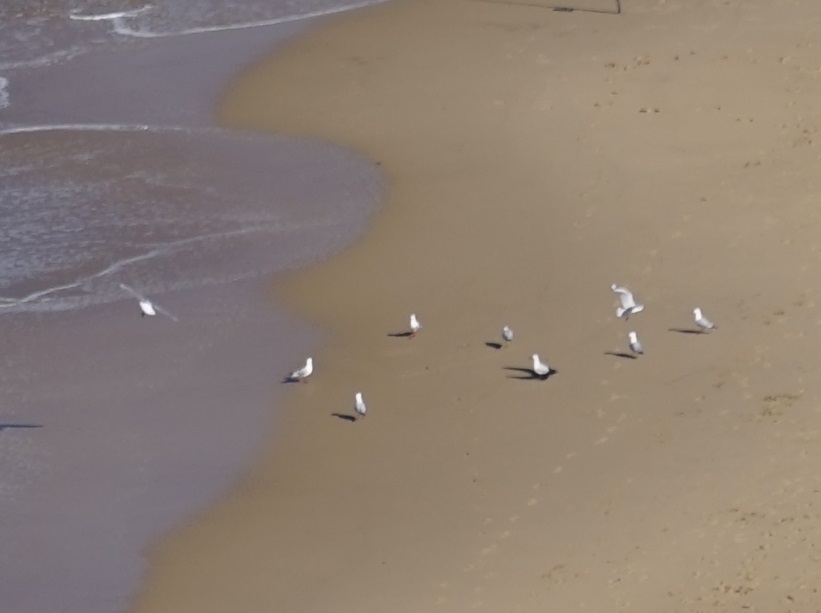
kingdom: Animalia
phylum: Chordata
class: Aves
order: Charadriiformes
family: Laridae
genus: Chroicocephalus
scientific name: Chroicocephalus novaehollandiae
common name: Silver gull
